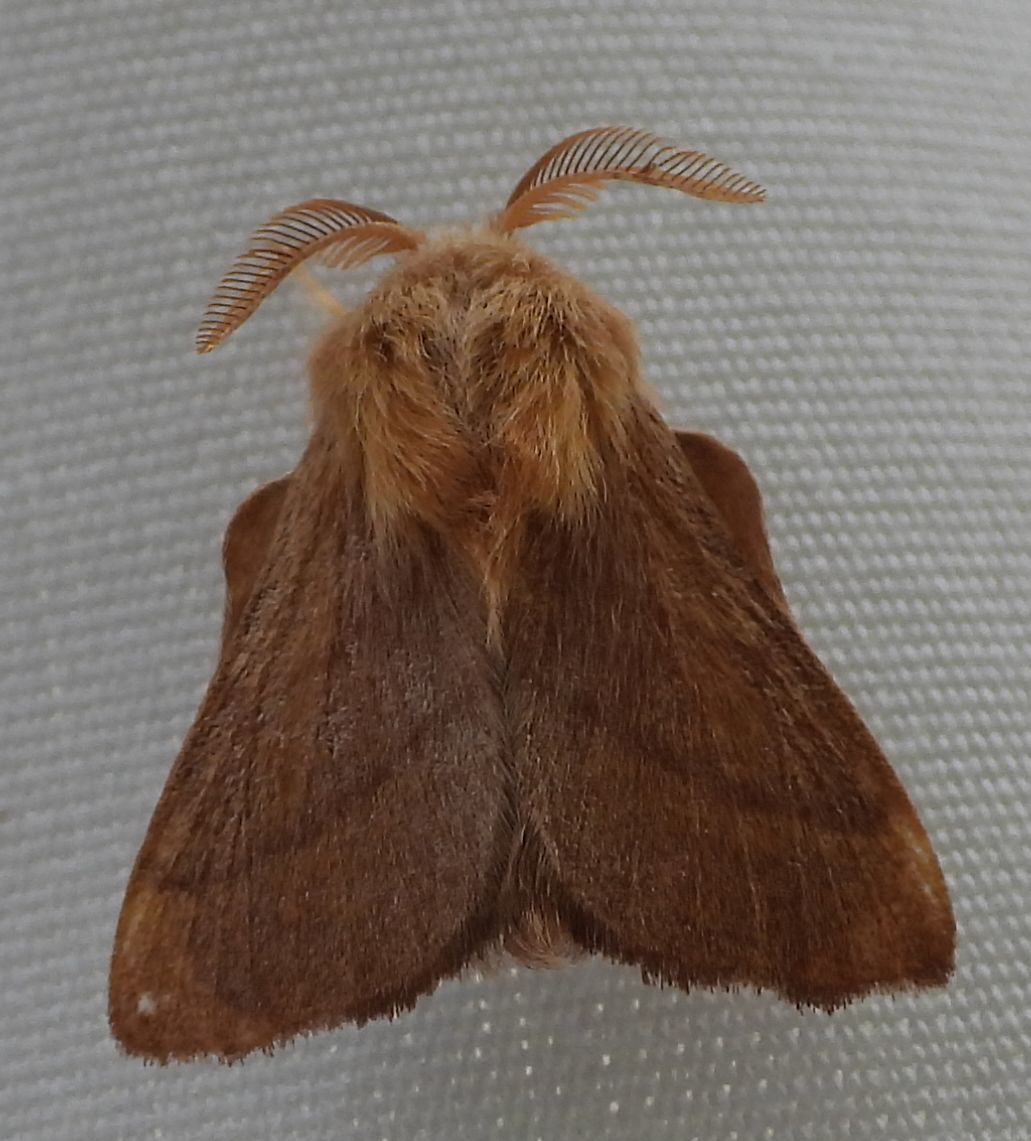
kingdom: Animalia
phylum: Arthropoda
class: Insecta
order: Lepidoptera
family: Lasiocampidae
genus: Malacosoma
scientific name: Malacosoma disstria
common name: Forest tent caterpillar
